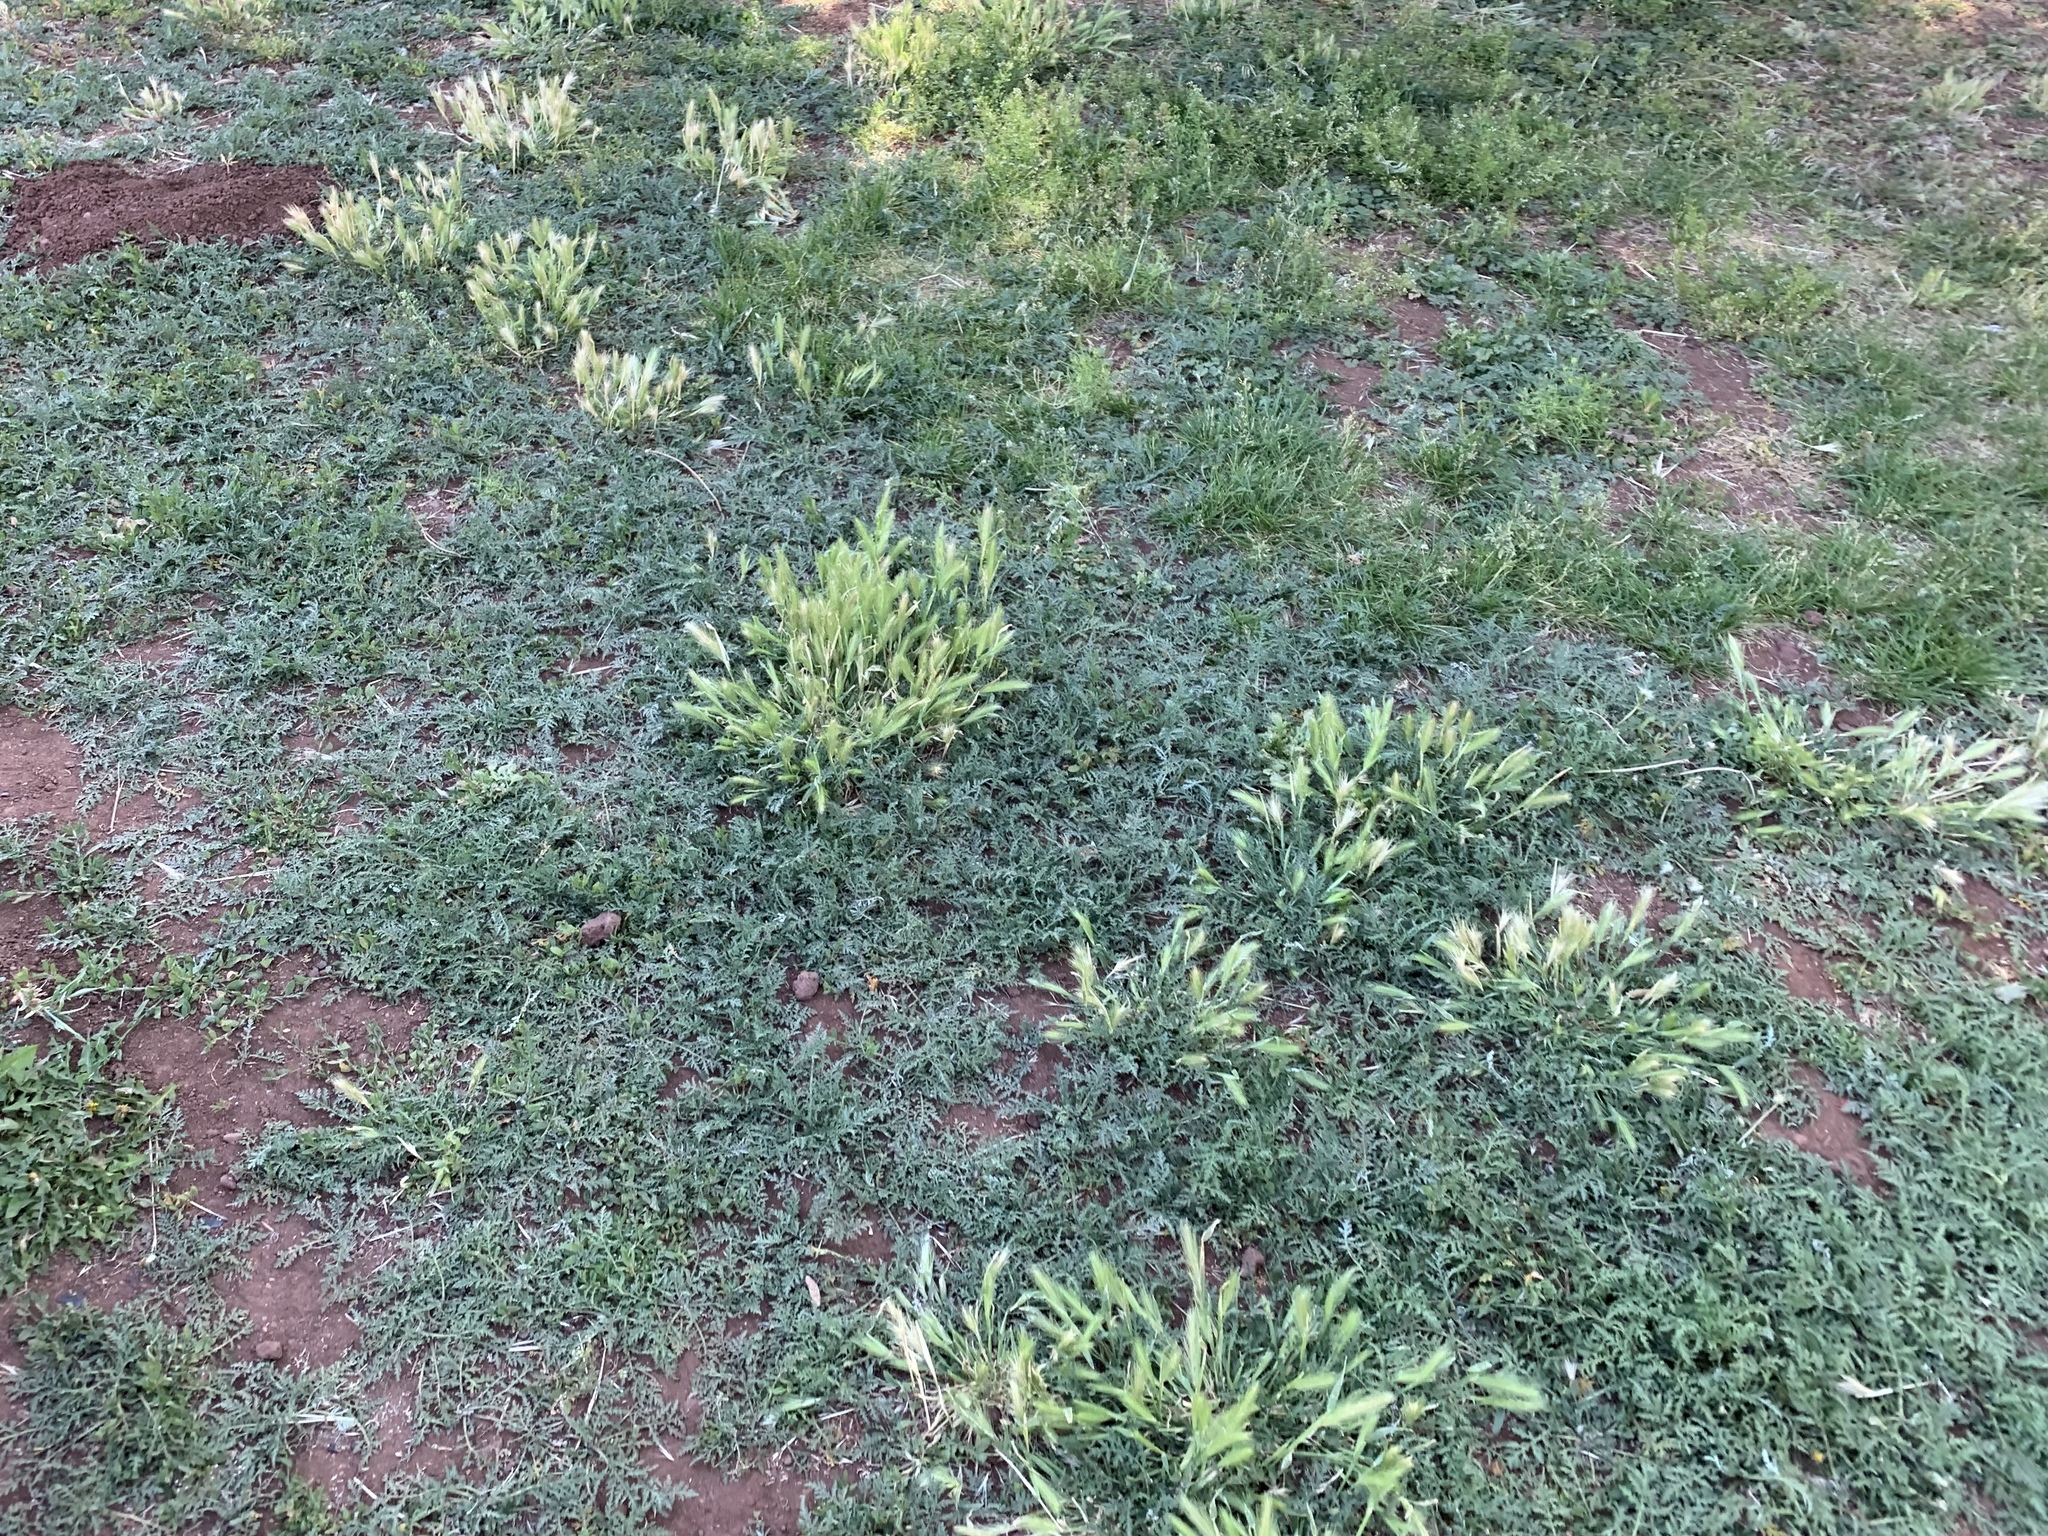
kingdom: Plantae
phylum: Tracheophyta
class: Liliopsida
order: Poales
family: Poaceae
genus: Hordeum
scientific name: Hordeum murinum
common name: Wall barley
